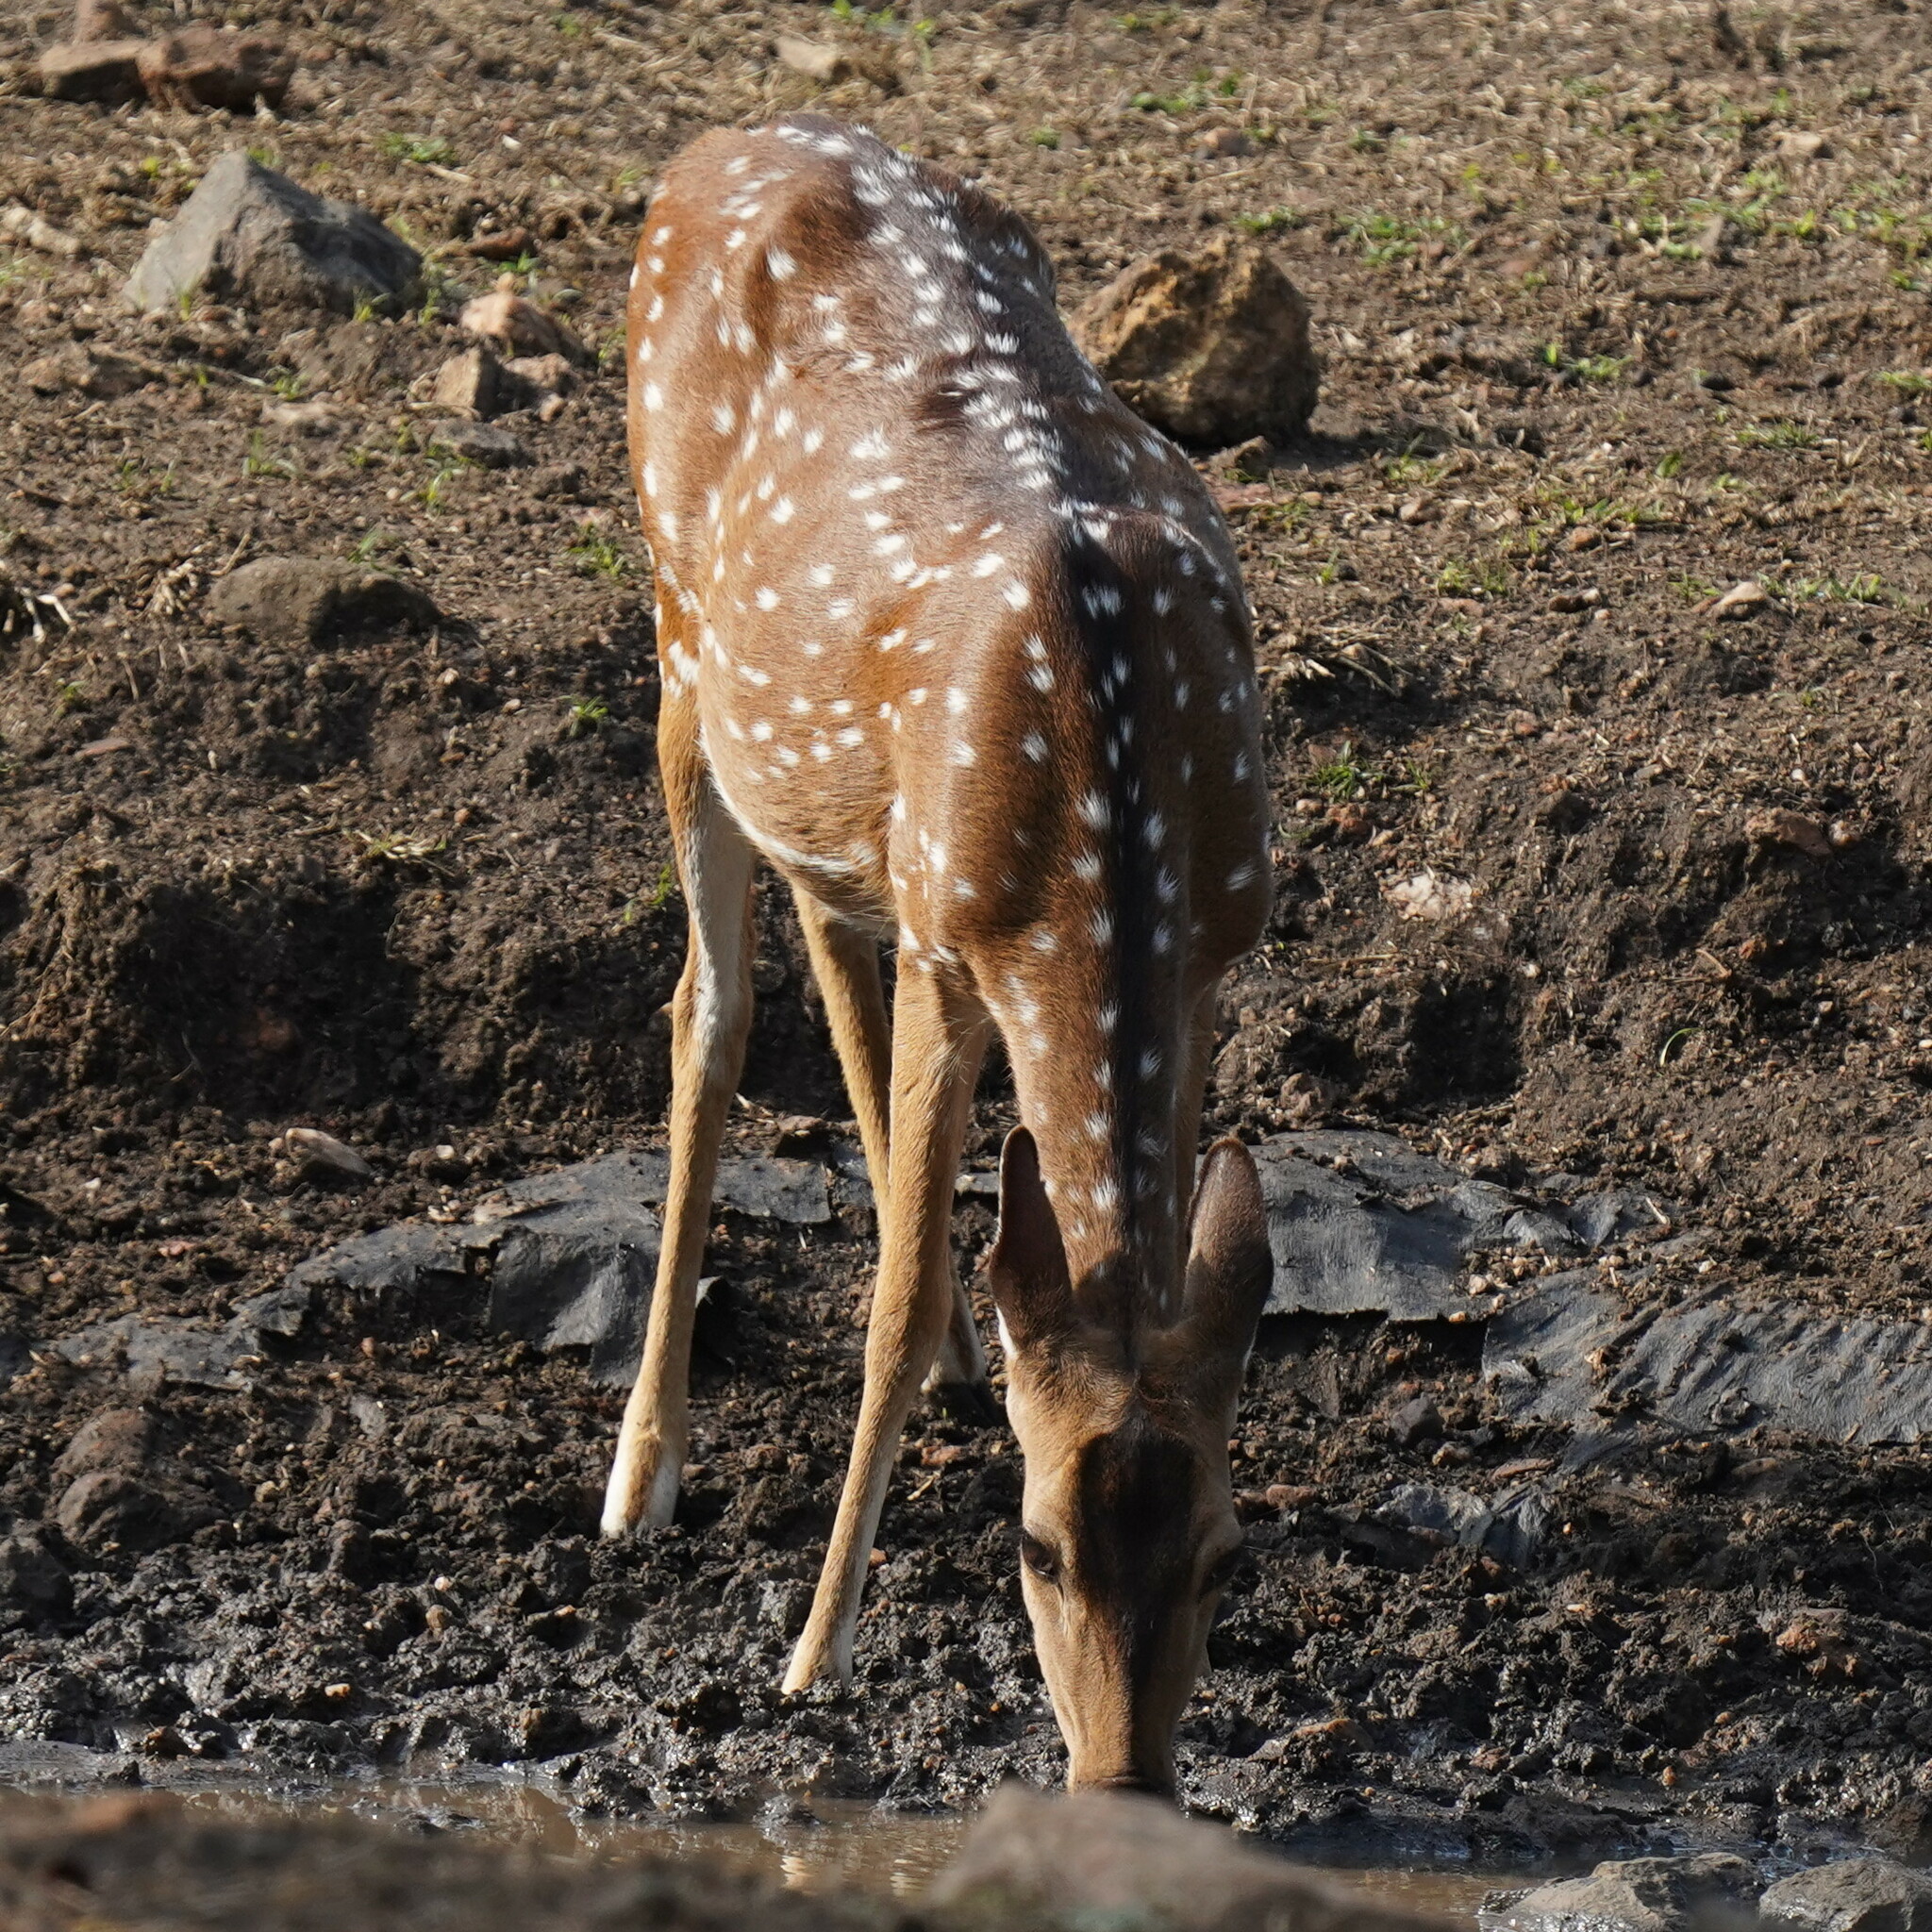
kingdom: Animalia
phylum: Chordata
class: Mammalia
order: Artiodactyla
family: Cervidae
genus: Axis
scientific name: Axis axis
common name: Chital
